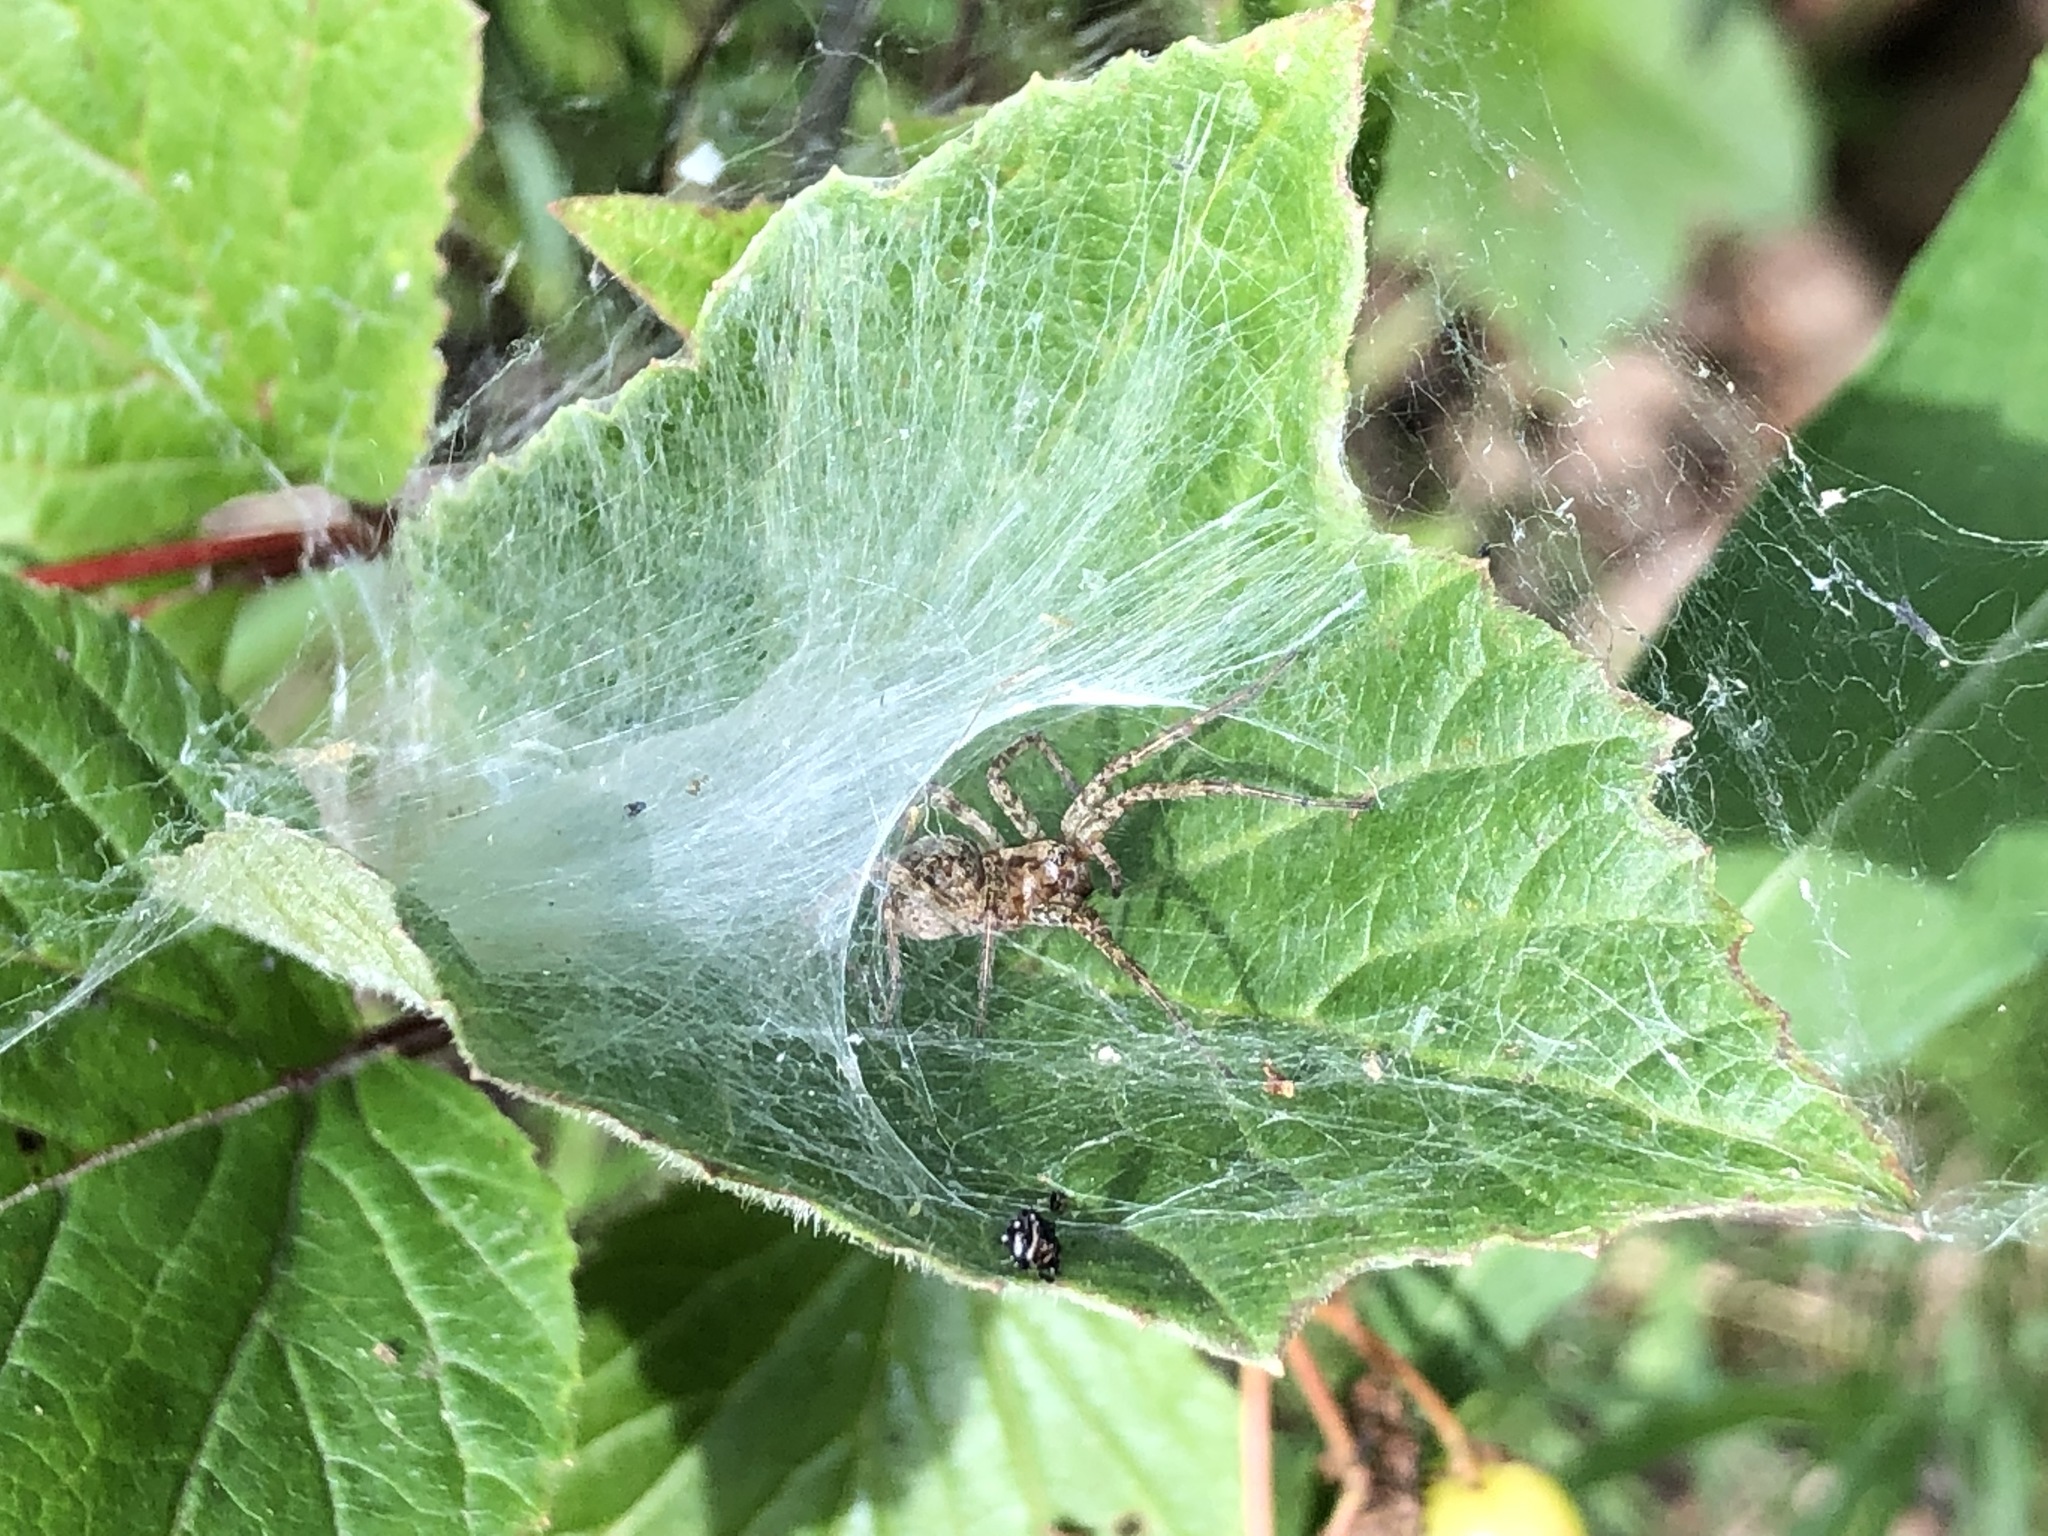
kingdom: Animalia
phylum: Arthropoda
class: Arachnida
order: Araneae
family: Agelenidae
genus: Agelenopsis
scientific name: Agelenopsis utahana
